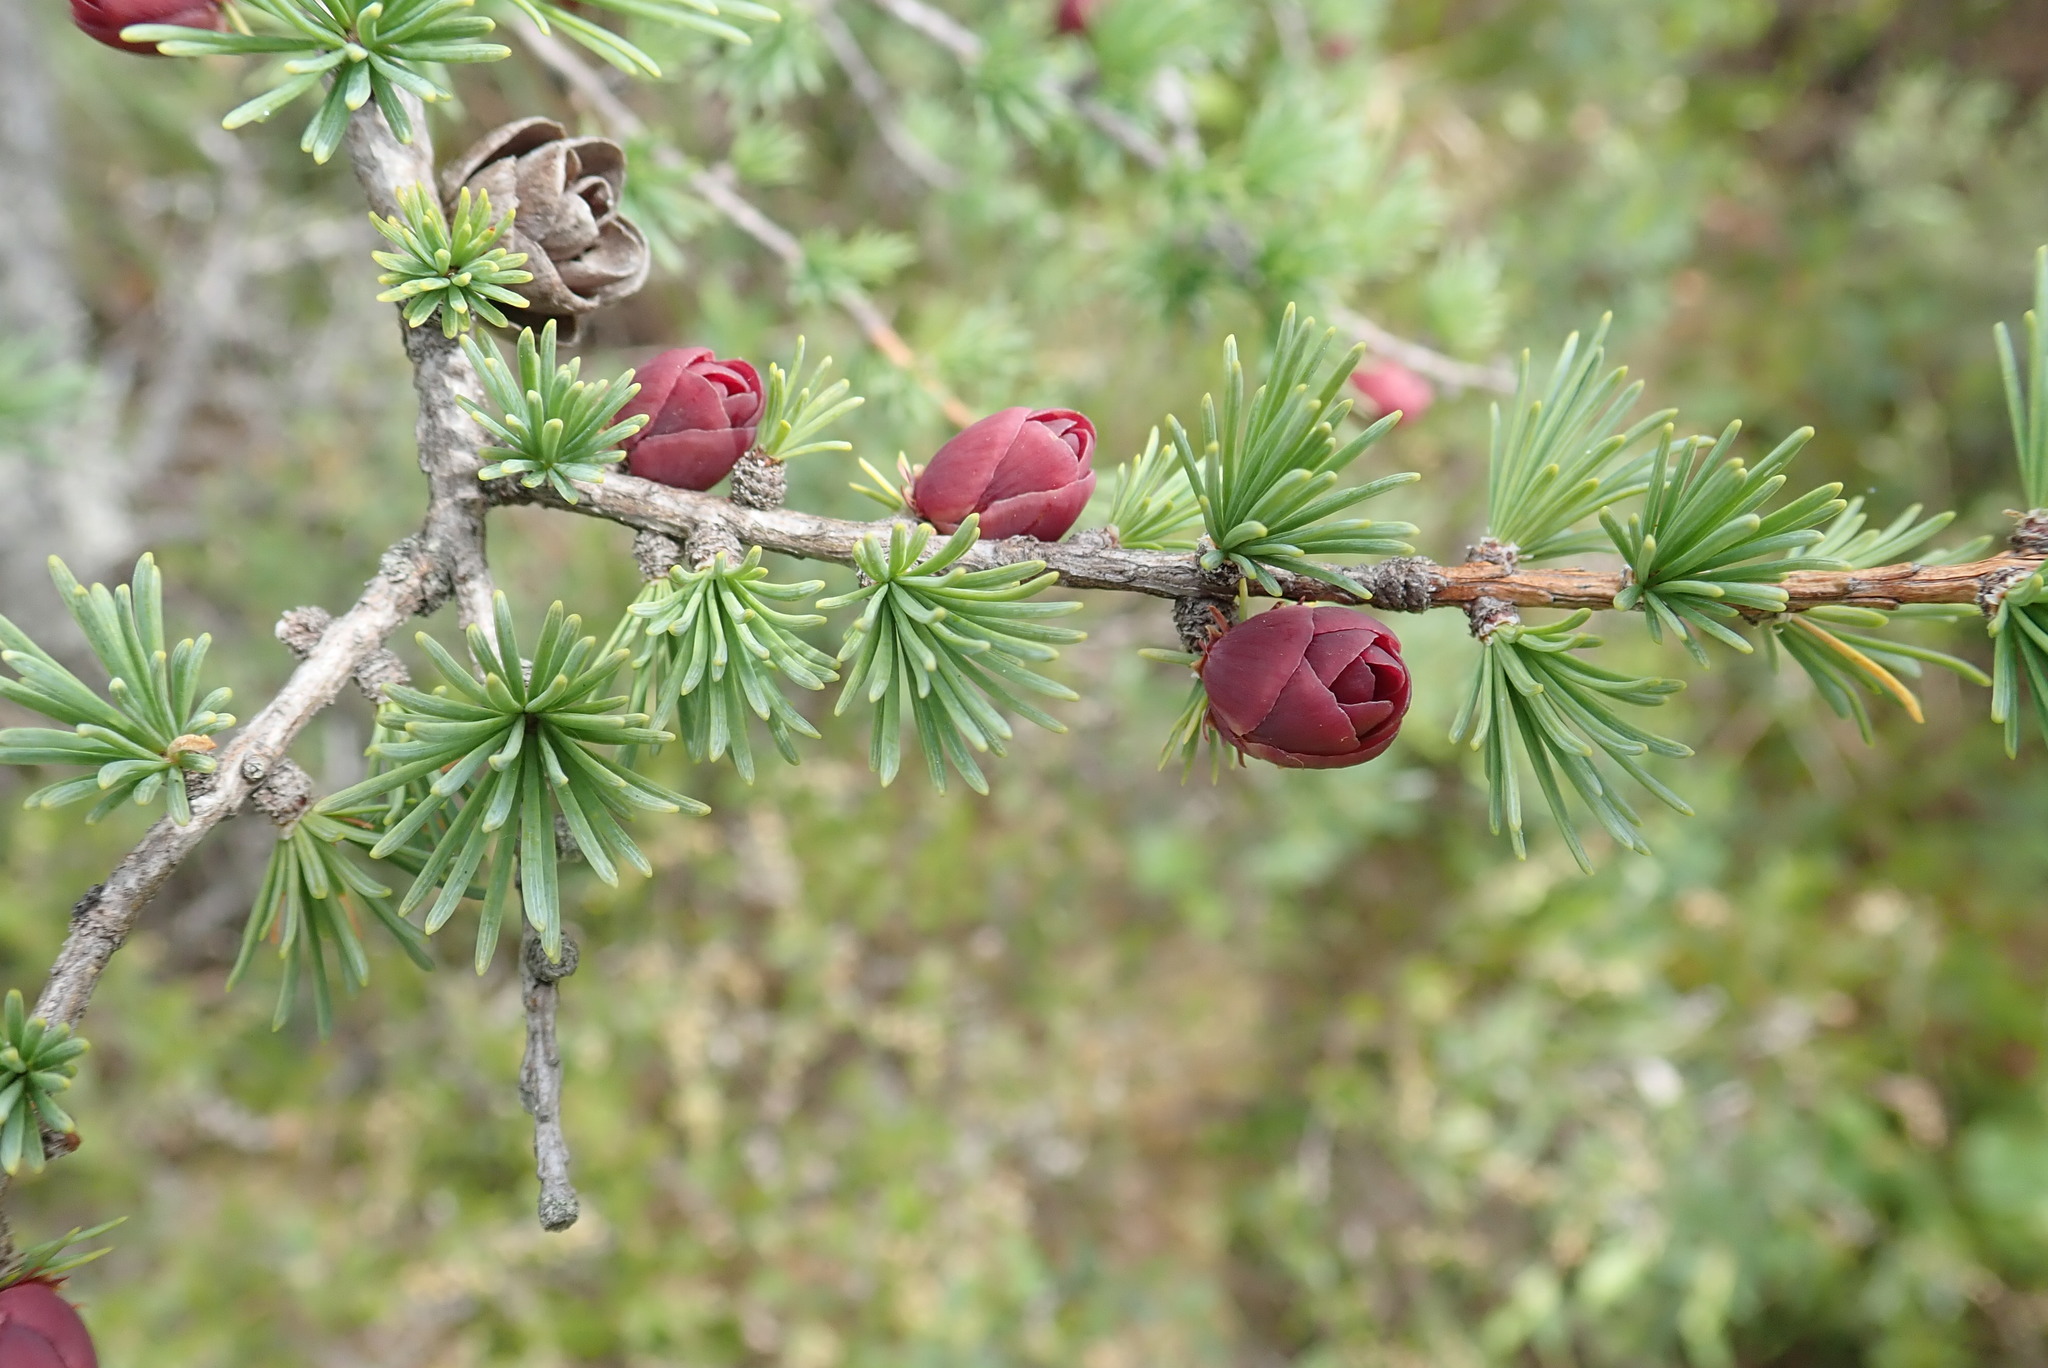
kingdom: Plantae
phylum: Tracheophyta
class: Pinopsida
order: Pinales
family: Pinaceae
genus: Larix
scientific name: Larix laricina
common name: American larch
